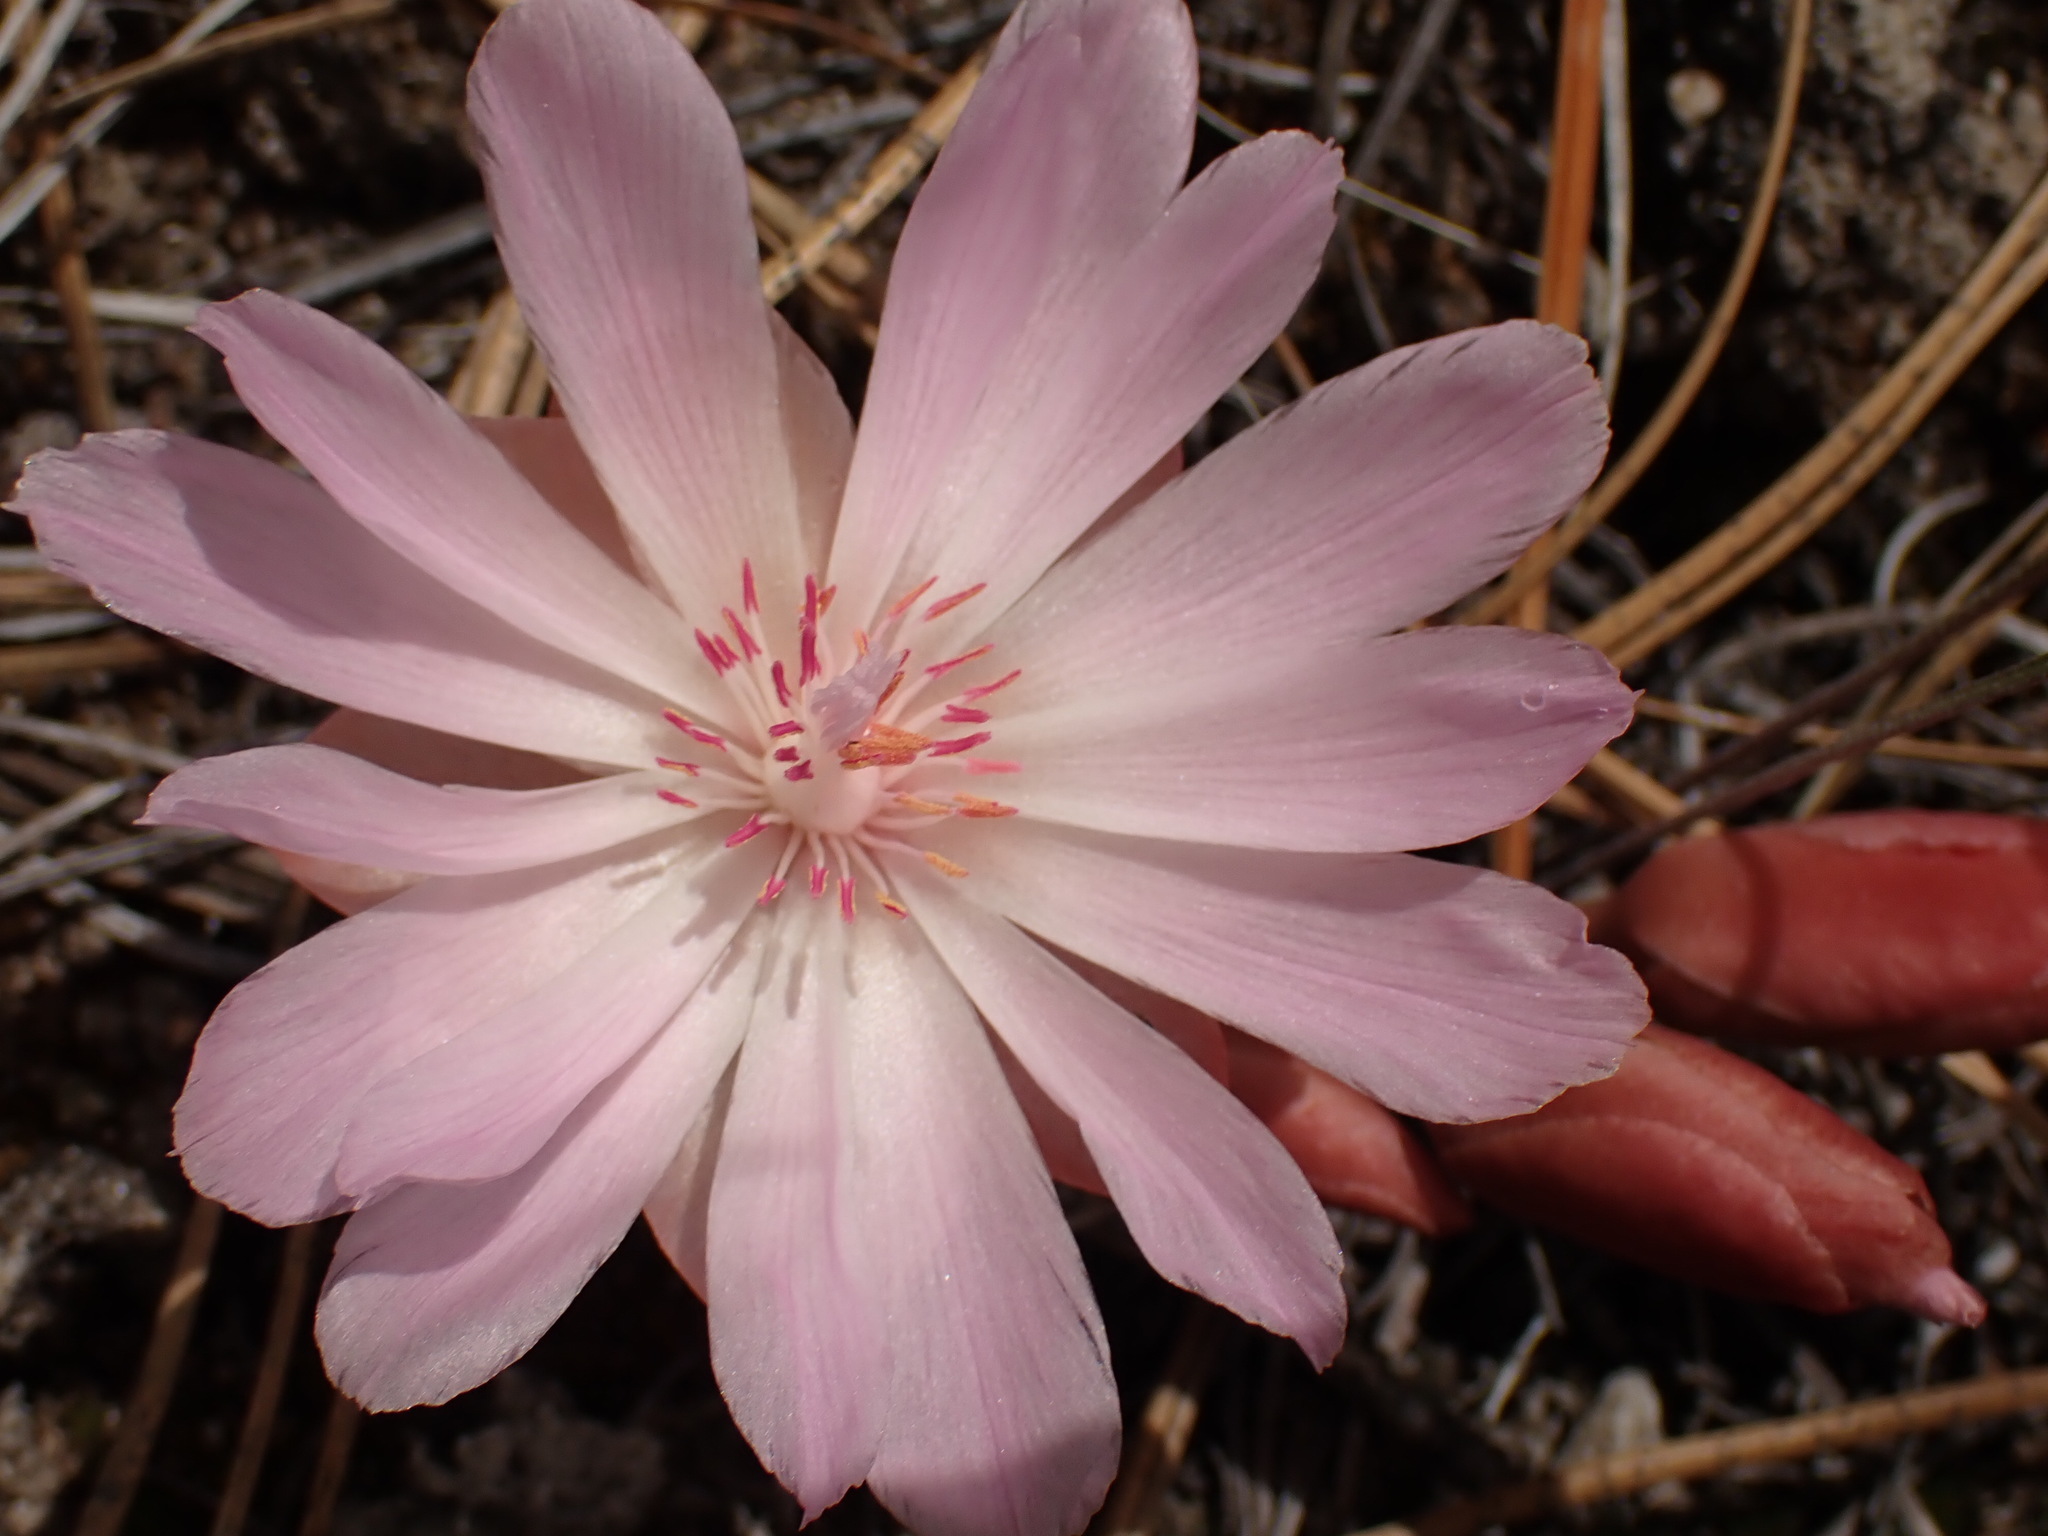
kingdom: Plantae
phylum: Tracheophyta
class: Magnoliopsida
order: Caryophyllales
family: Montiaceae
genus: Lewisia
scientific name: Lewisia rediviva
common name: Bitter-root
